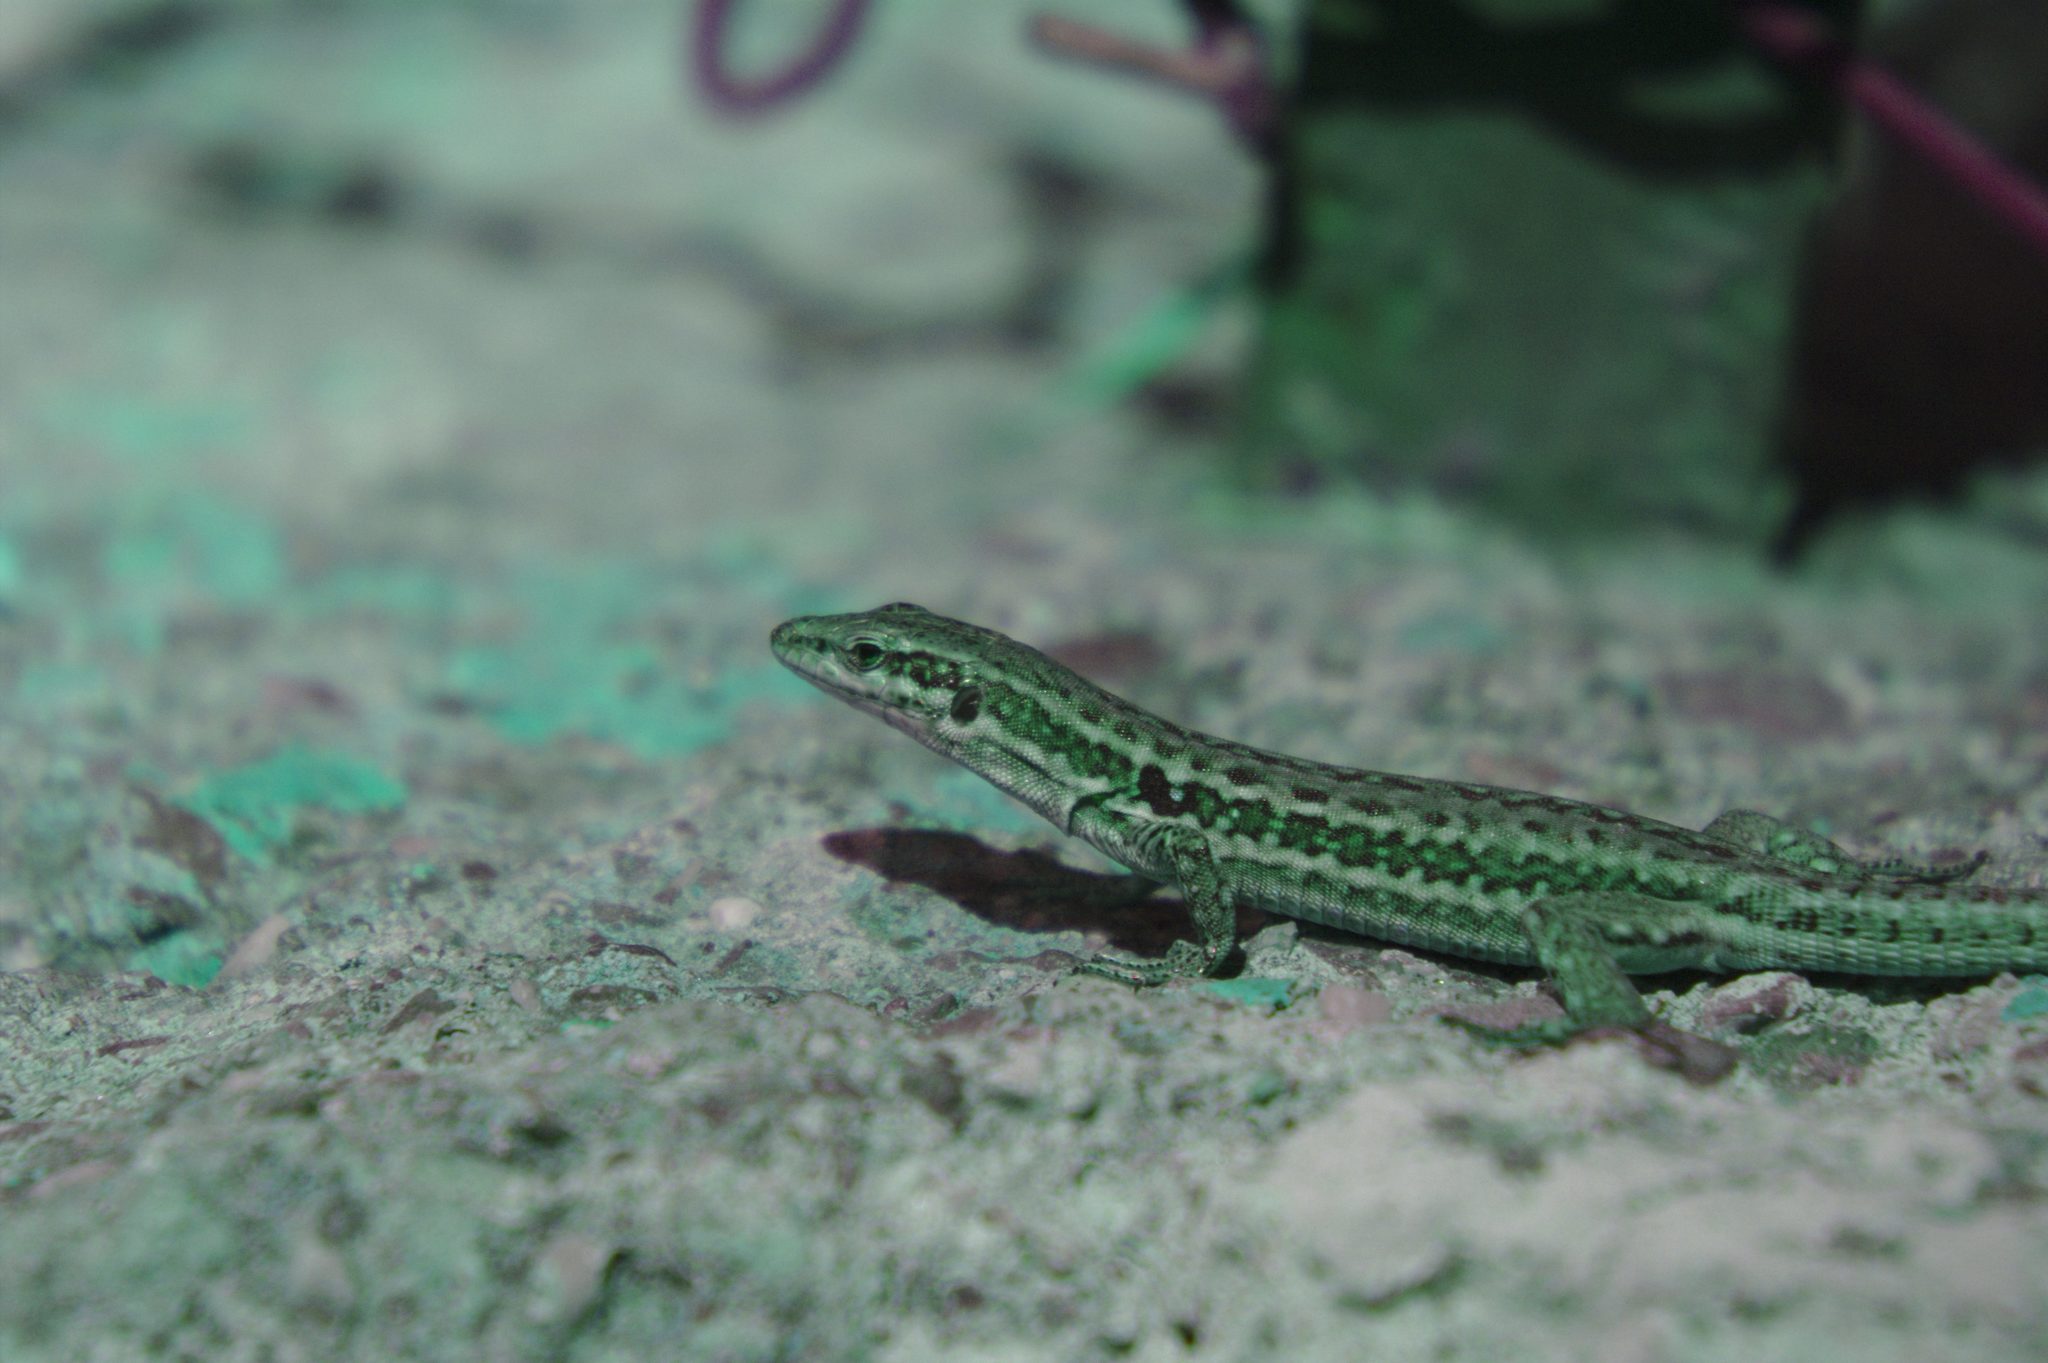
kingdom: Animalia
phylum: Chordata
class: Squamata
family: Lacertidae
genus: Podarcis
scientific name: Podarcis siculus
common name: Italian wall lizard
